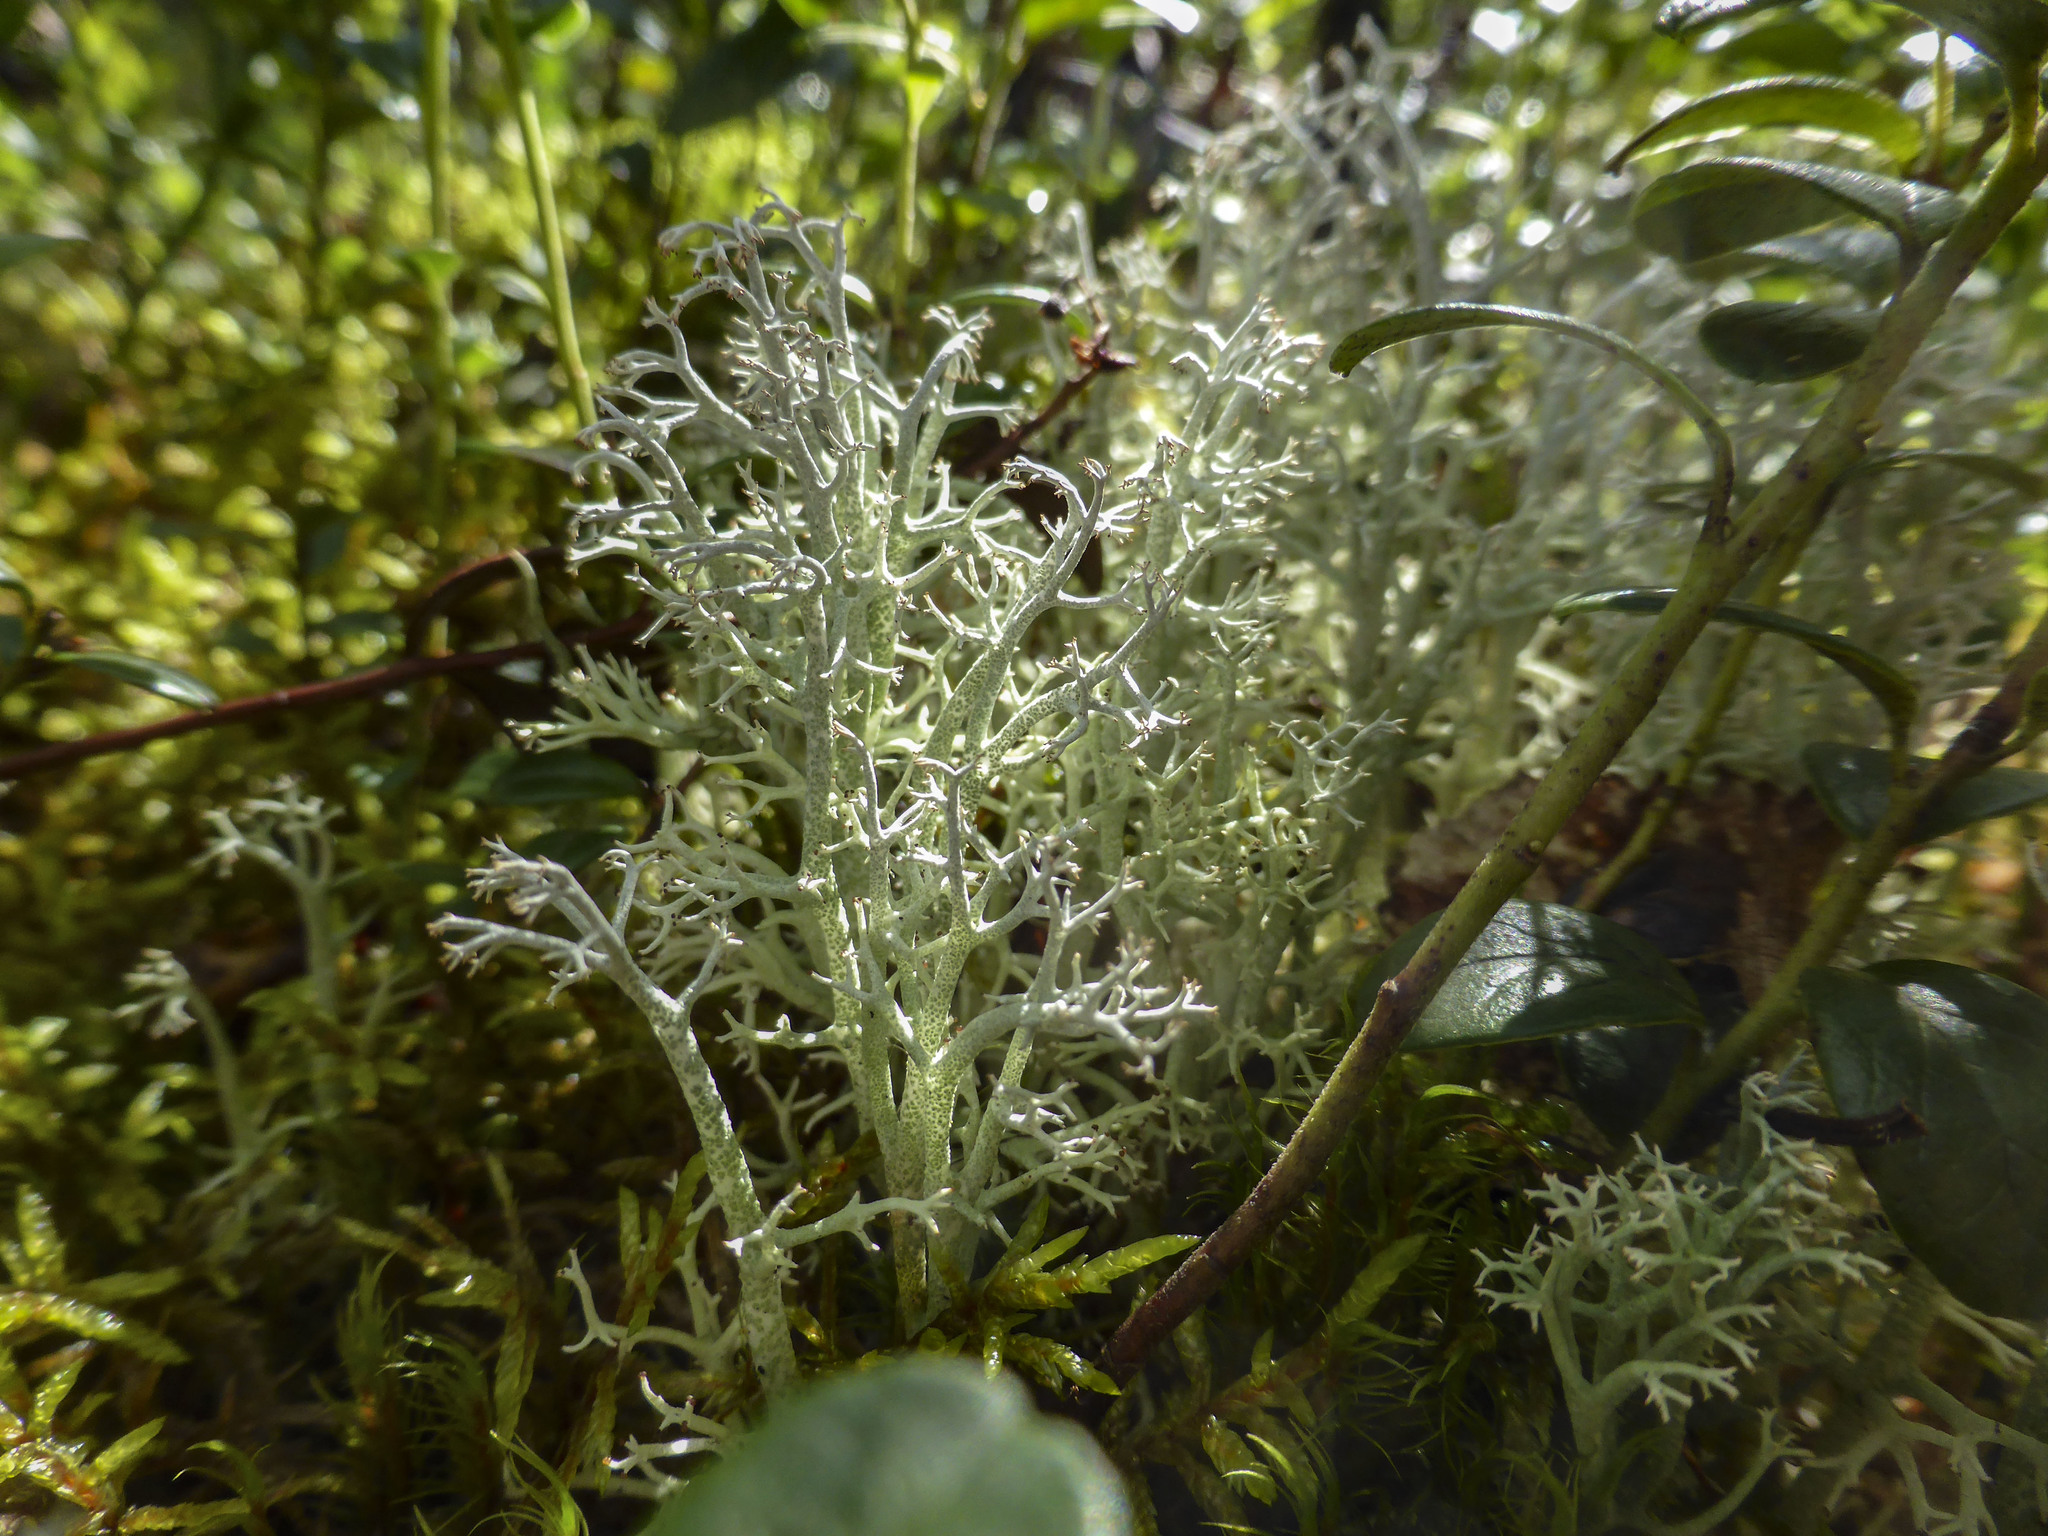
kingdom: Fungi
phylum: Ascomycota
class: Lecanoromycetes
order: Lecanorales
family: Cladoniaceae
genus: Cladonia
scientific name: Cladonia portentosa
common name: Reindeer lichen
